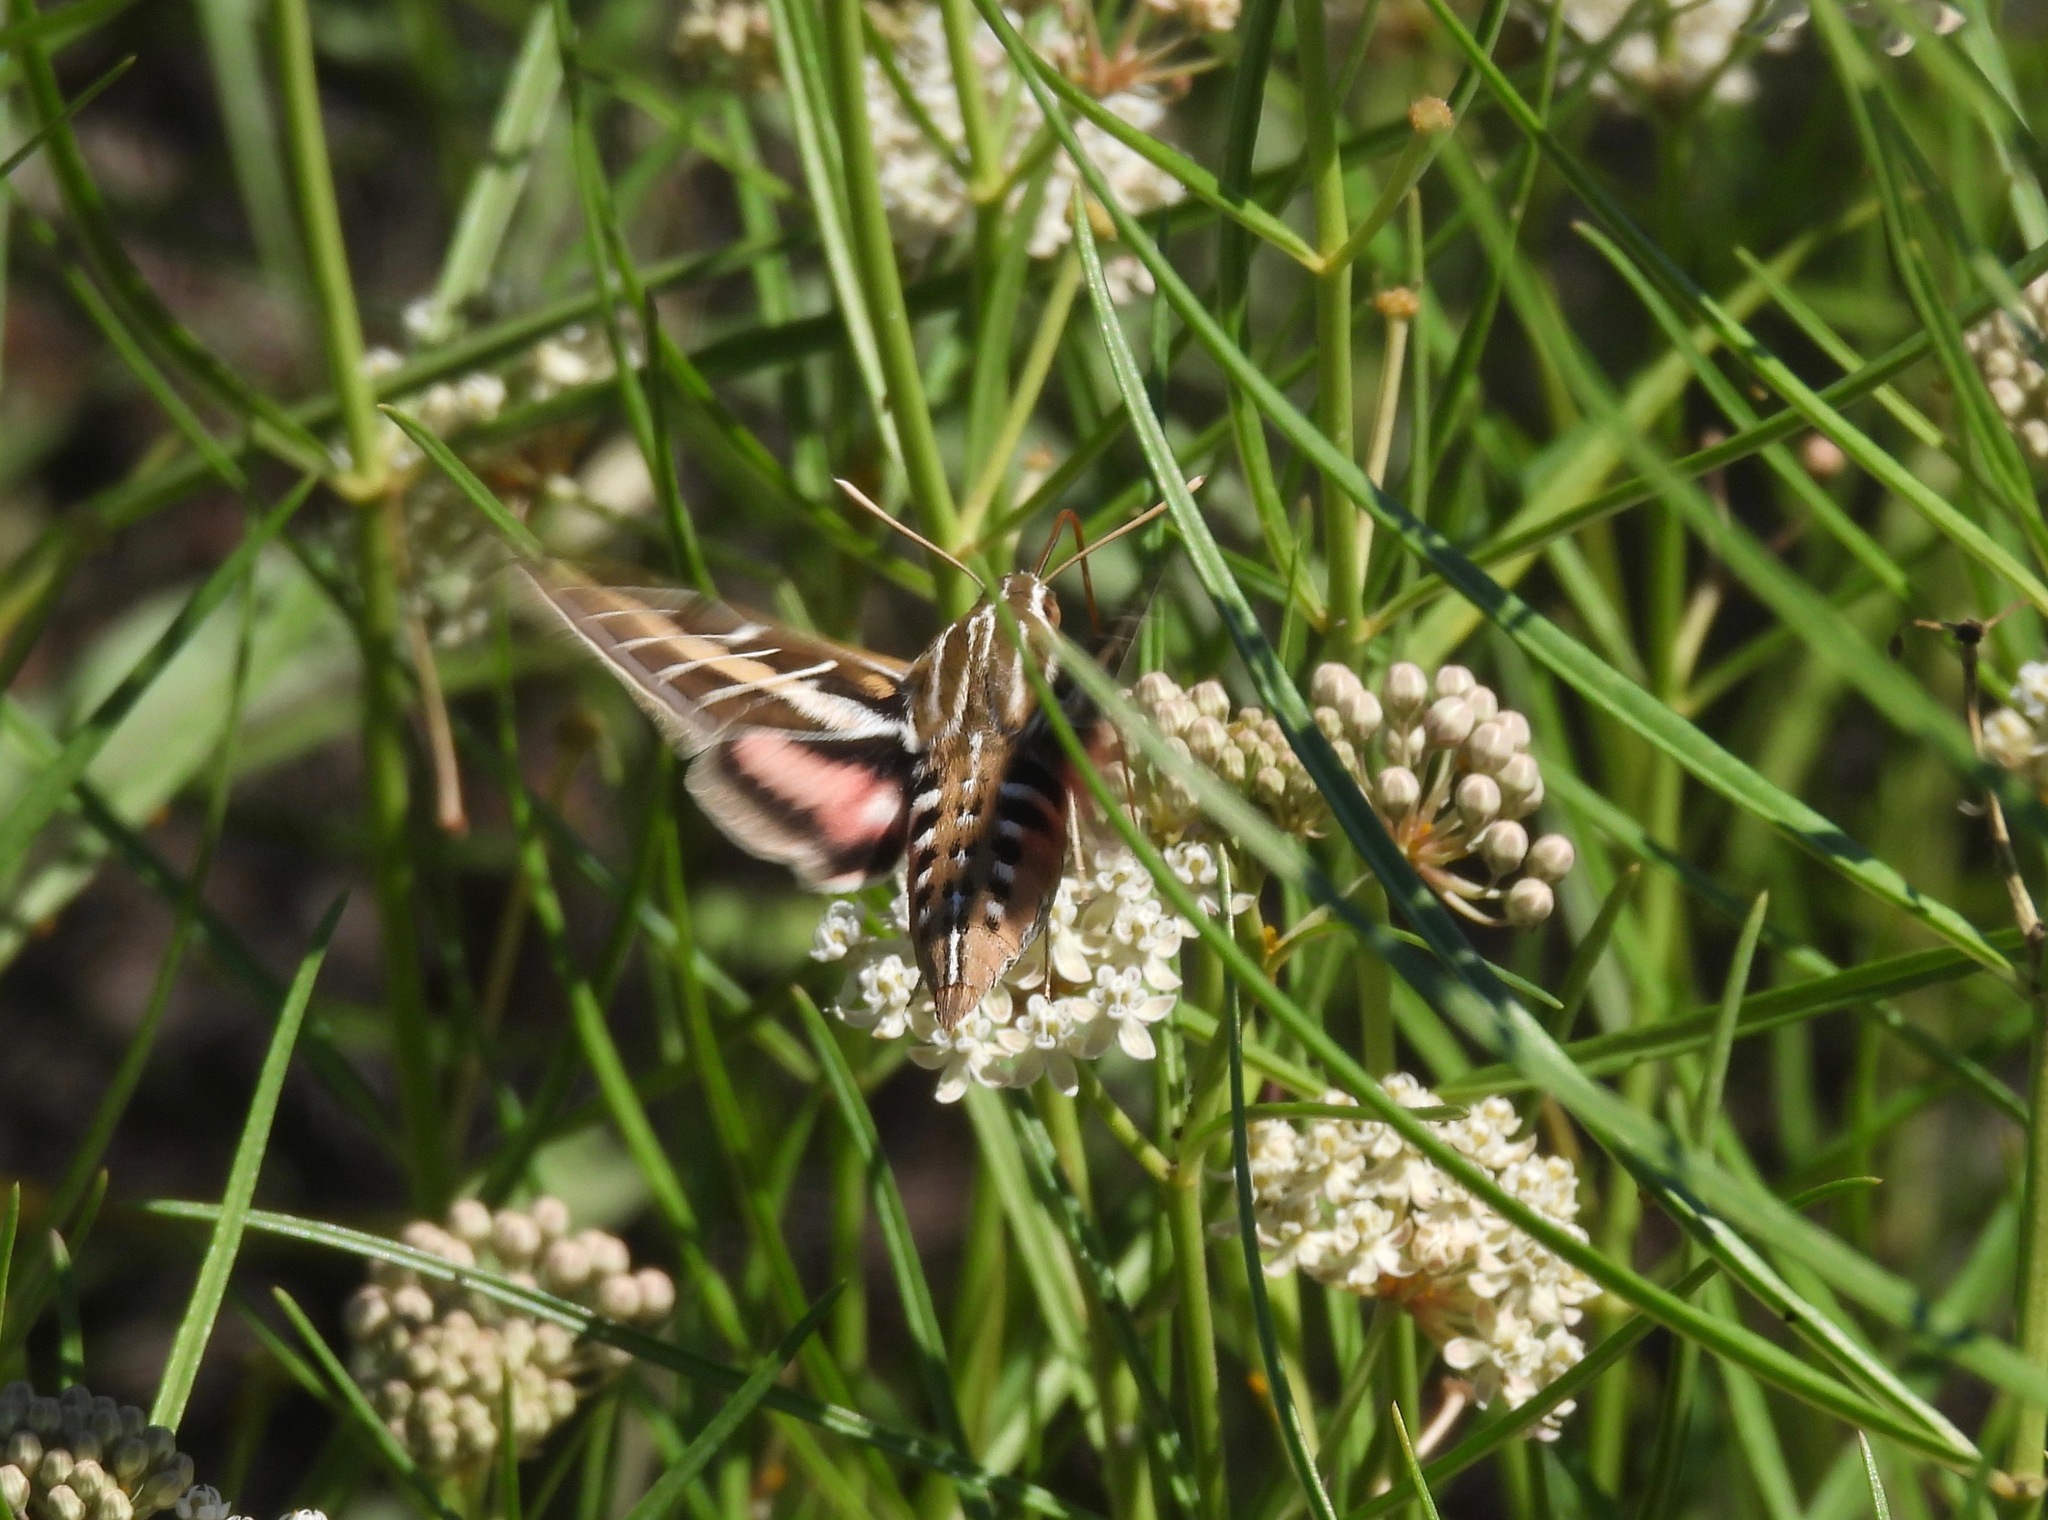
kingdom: Animalia
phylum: Arthropoda
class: Insecta
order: Lepidoptera
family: Sphingidae
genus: Hyles
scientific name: Hyles lineata
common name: White-lined sphinx
